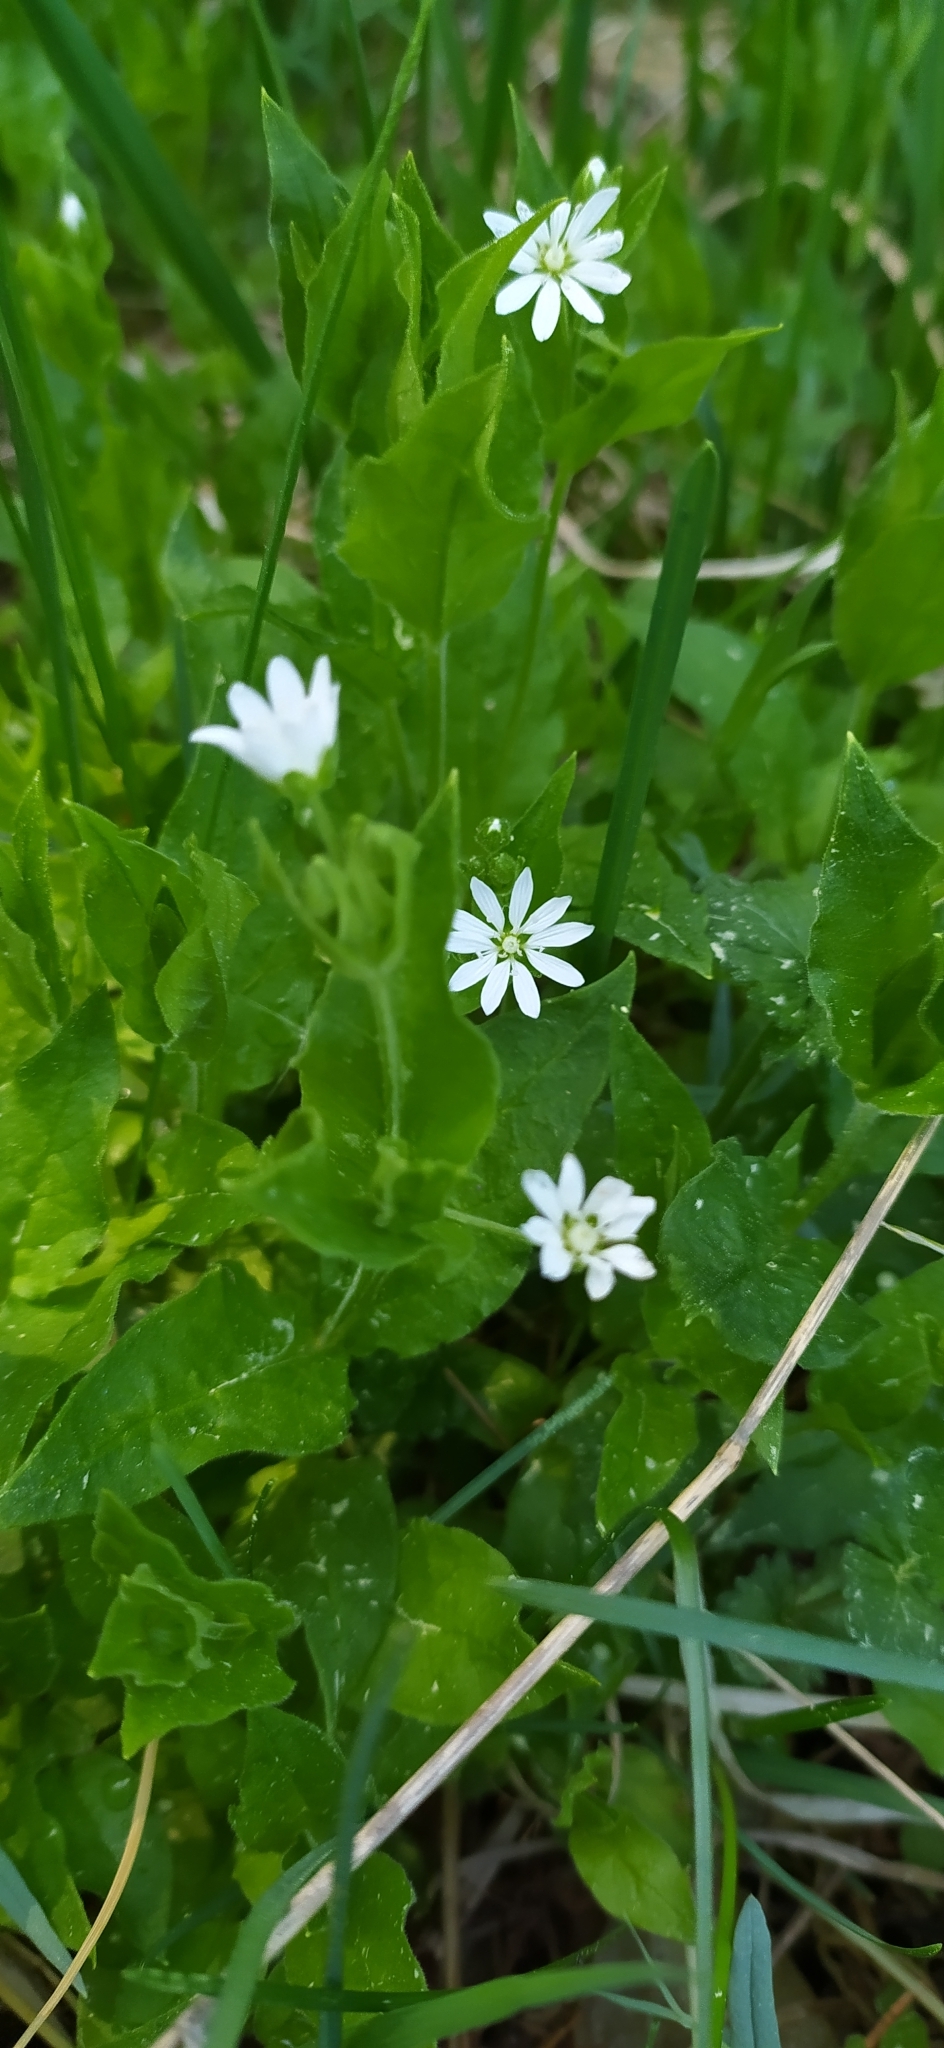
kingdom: Plantae
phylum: Tracheophyta
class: Magnoliopsida
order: Caryophyllales
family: Caryophyllaceae
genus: Stellaria
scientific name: Stellaria bungeana
